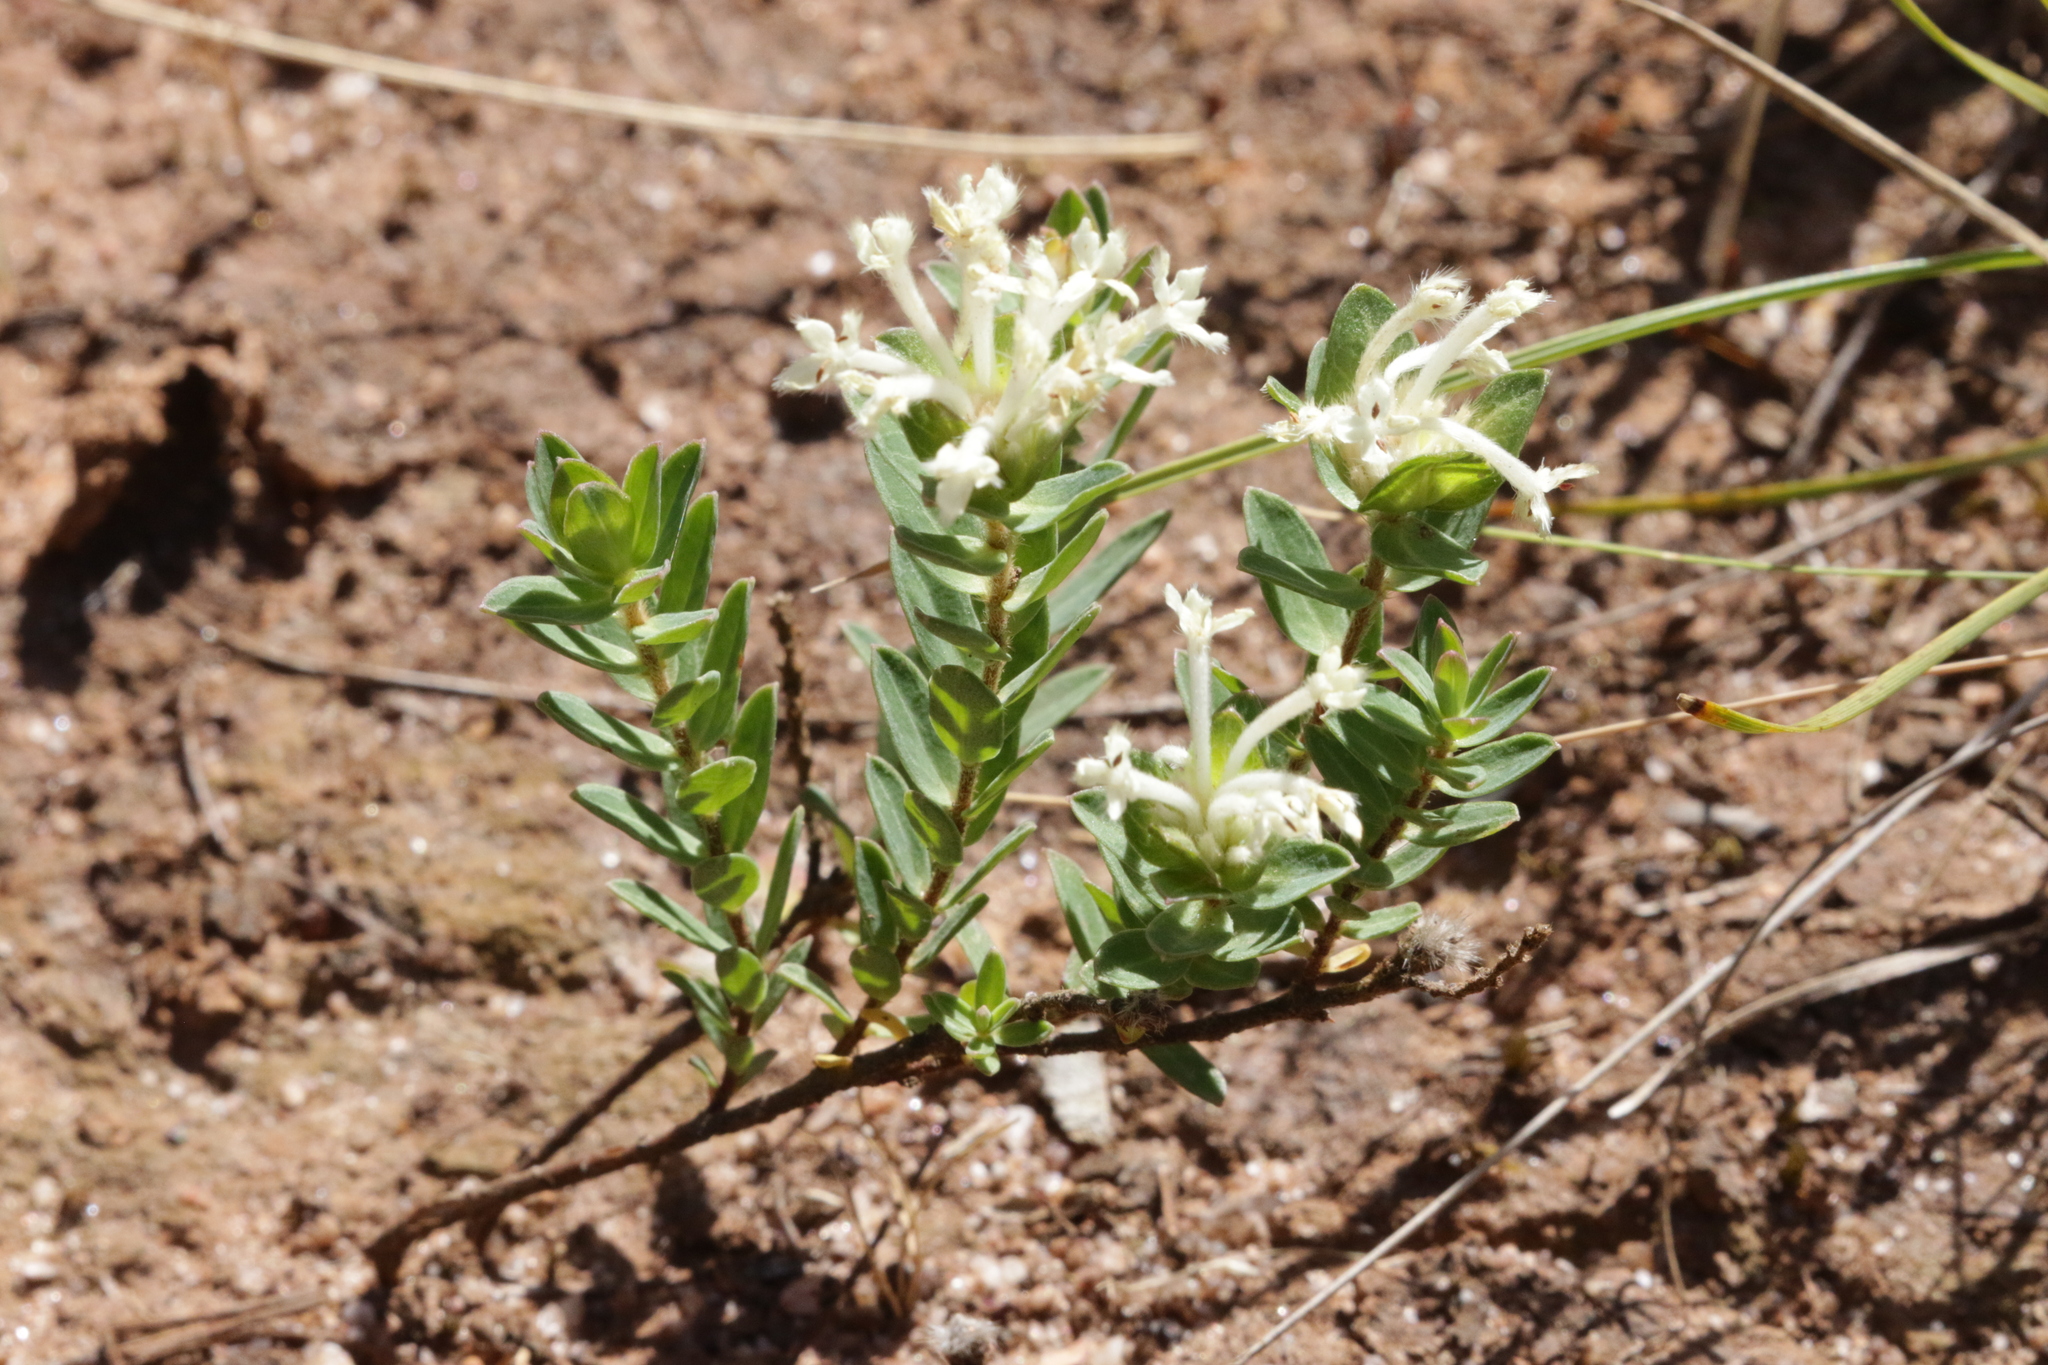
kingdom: Plantae
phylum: Tracheophyta
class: Magnoliopsida
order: Malvales
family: Thymelaeaceae
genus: Pimelea
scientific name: Pimelea humilis
